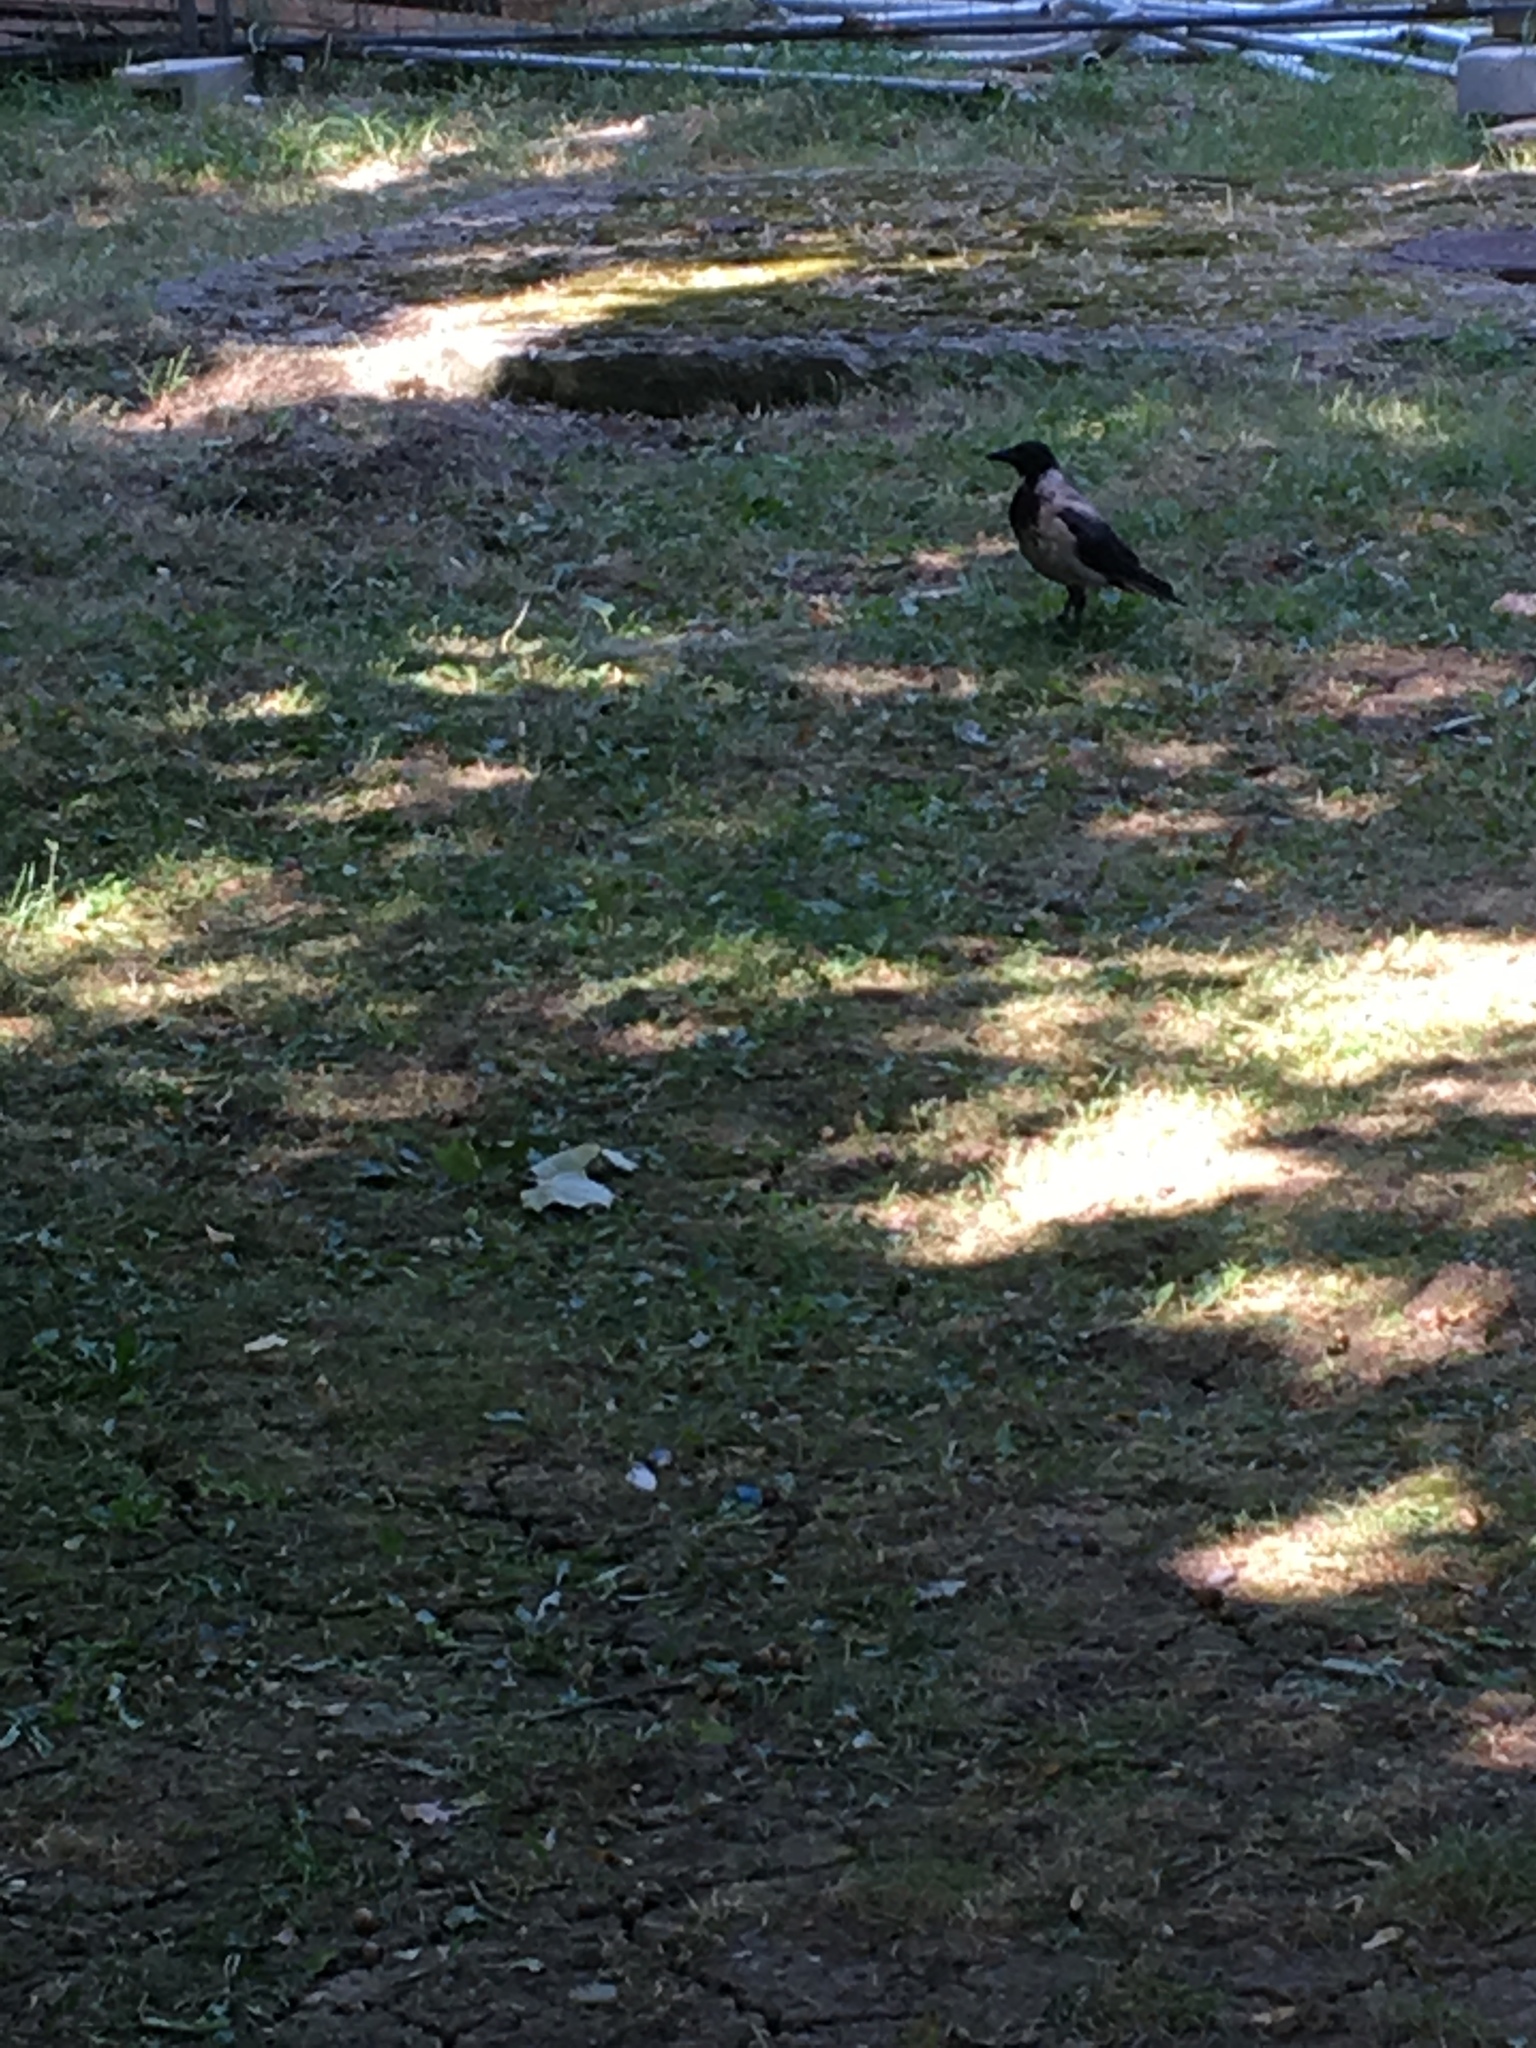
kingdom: Animalia
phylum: Chordata
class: Aves
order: Passeriformes
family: Corvidae
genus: Corvus
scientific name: Corvus cornix
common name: Hooded crow
